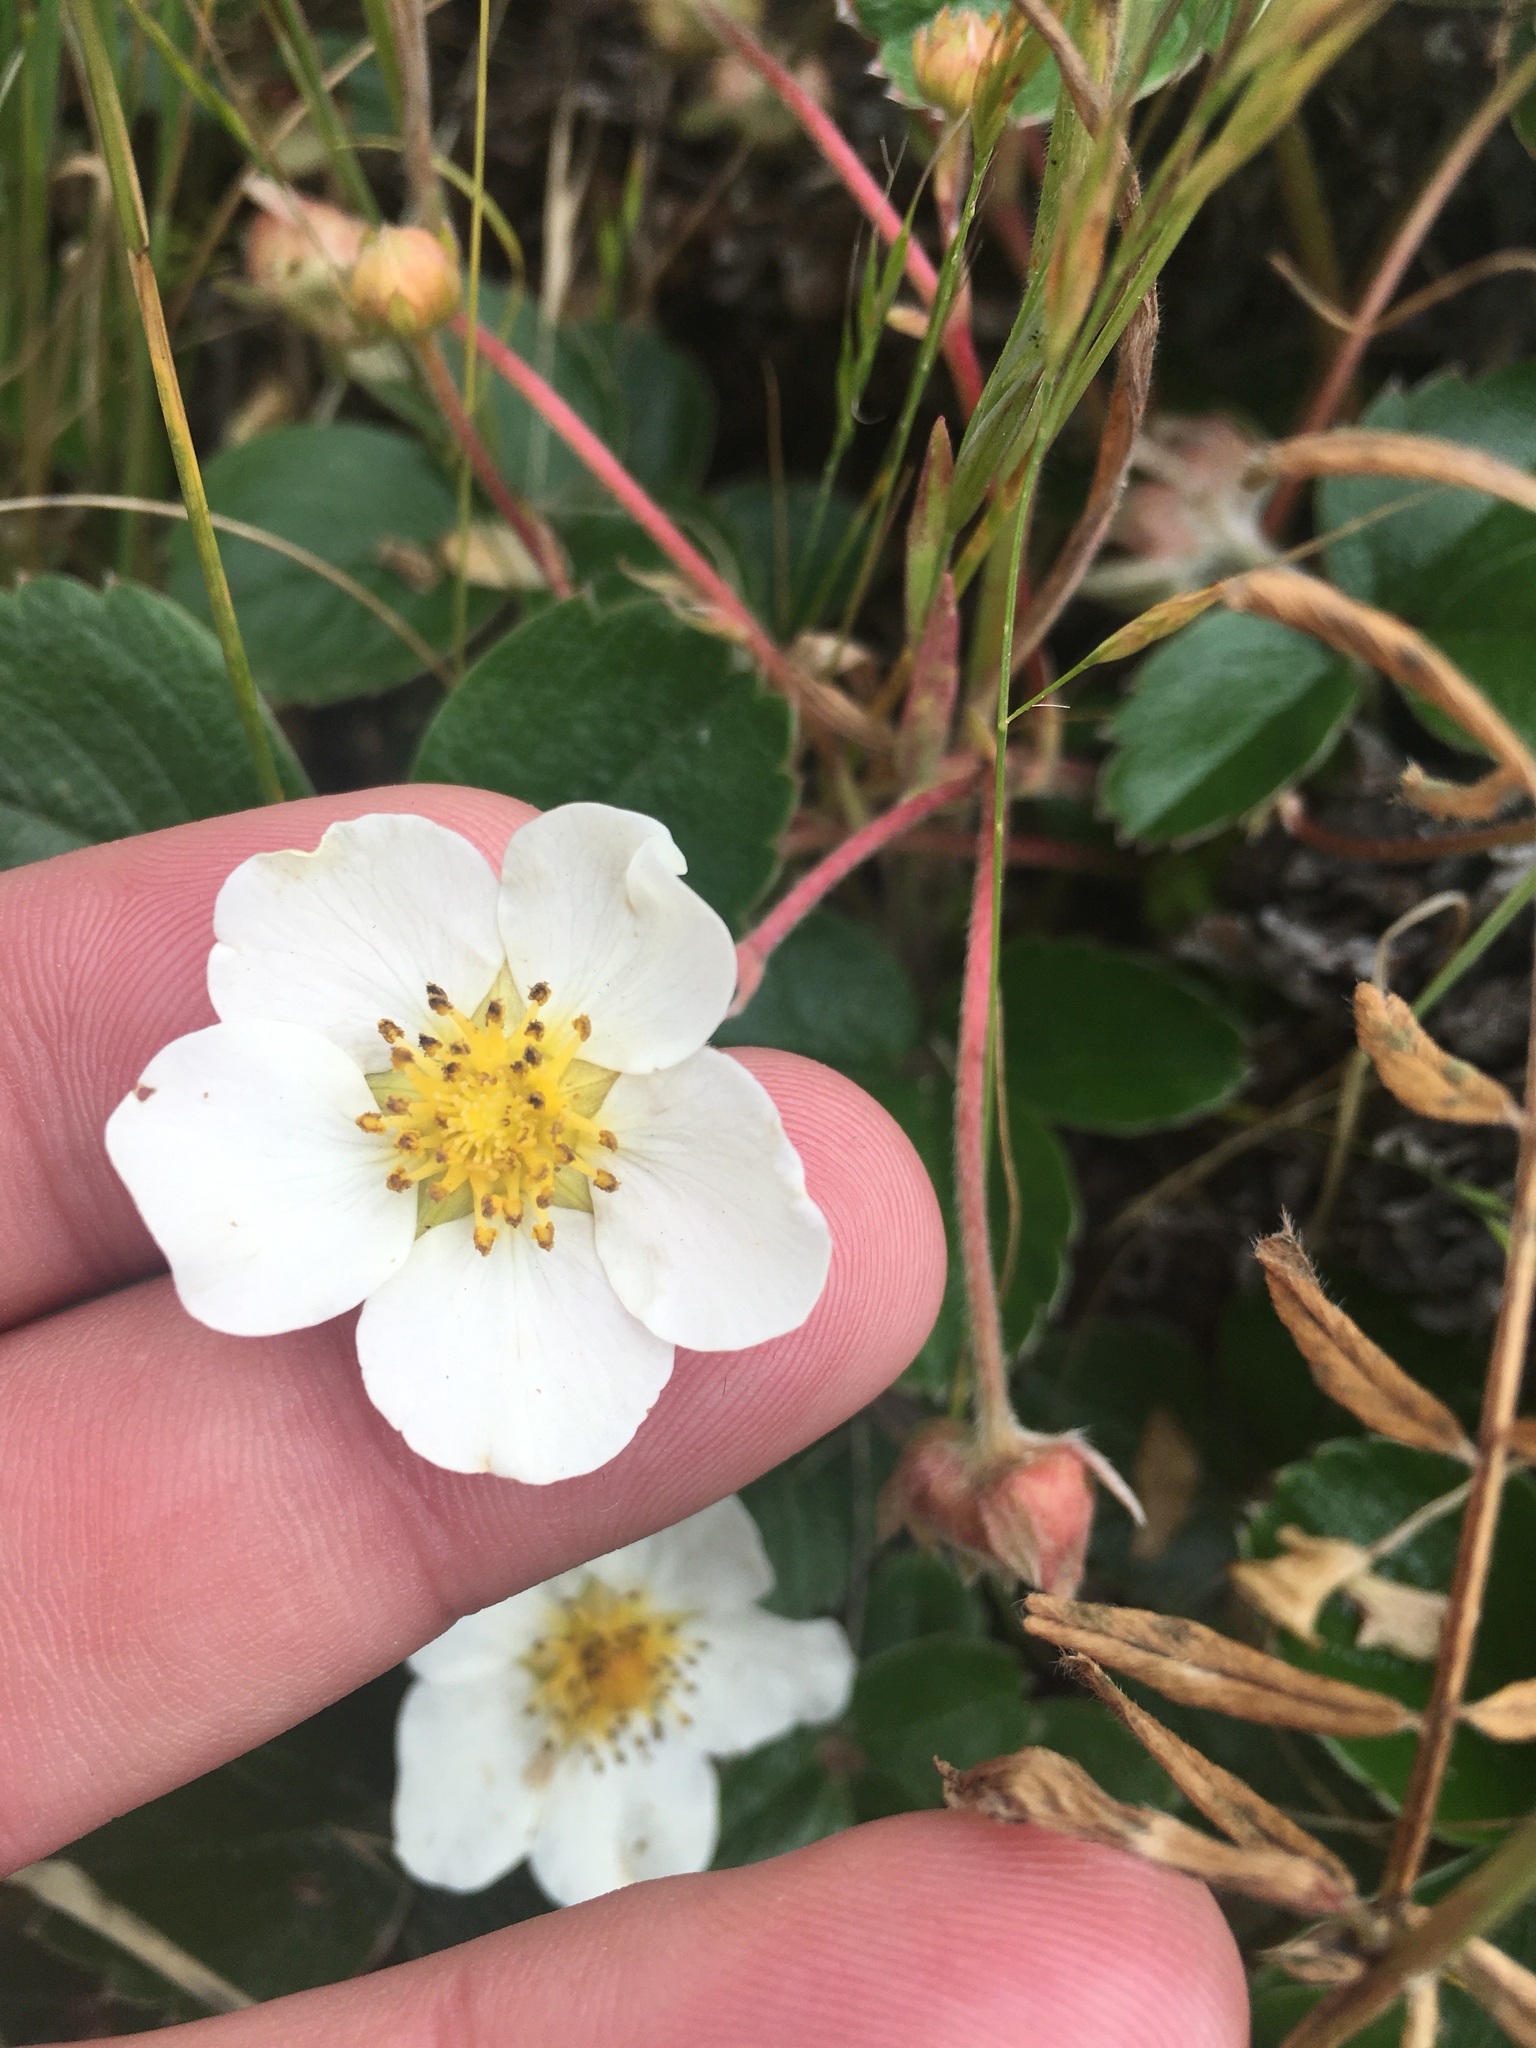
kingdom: Plantae
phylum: Tracheophyta
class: Magnoliopsida
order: Rosales
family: Rosaceae
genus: Fragaria
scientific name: Fragaria chiloensis
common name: Beach strawberry
